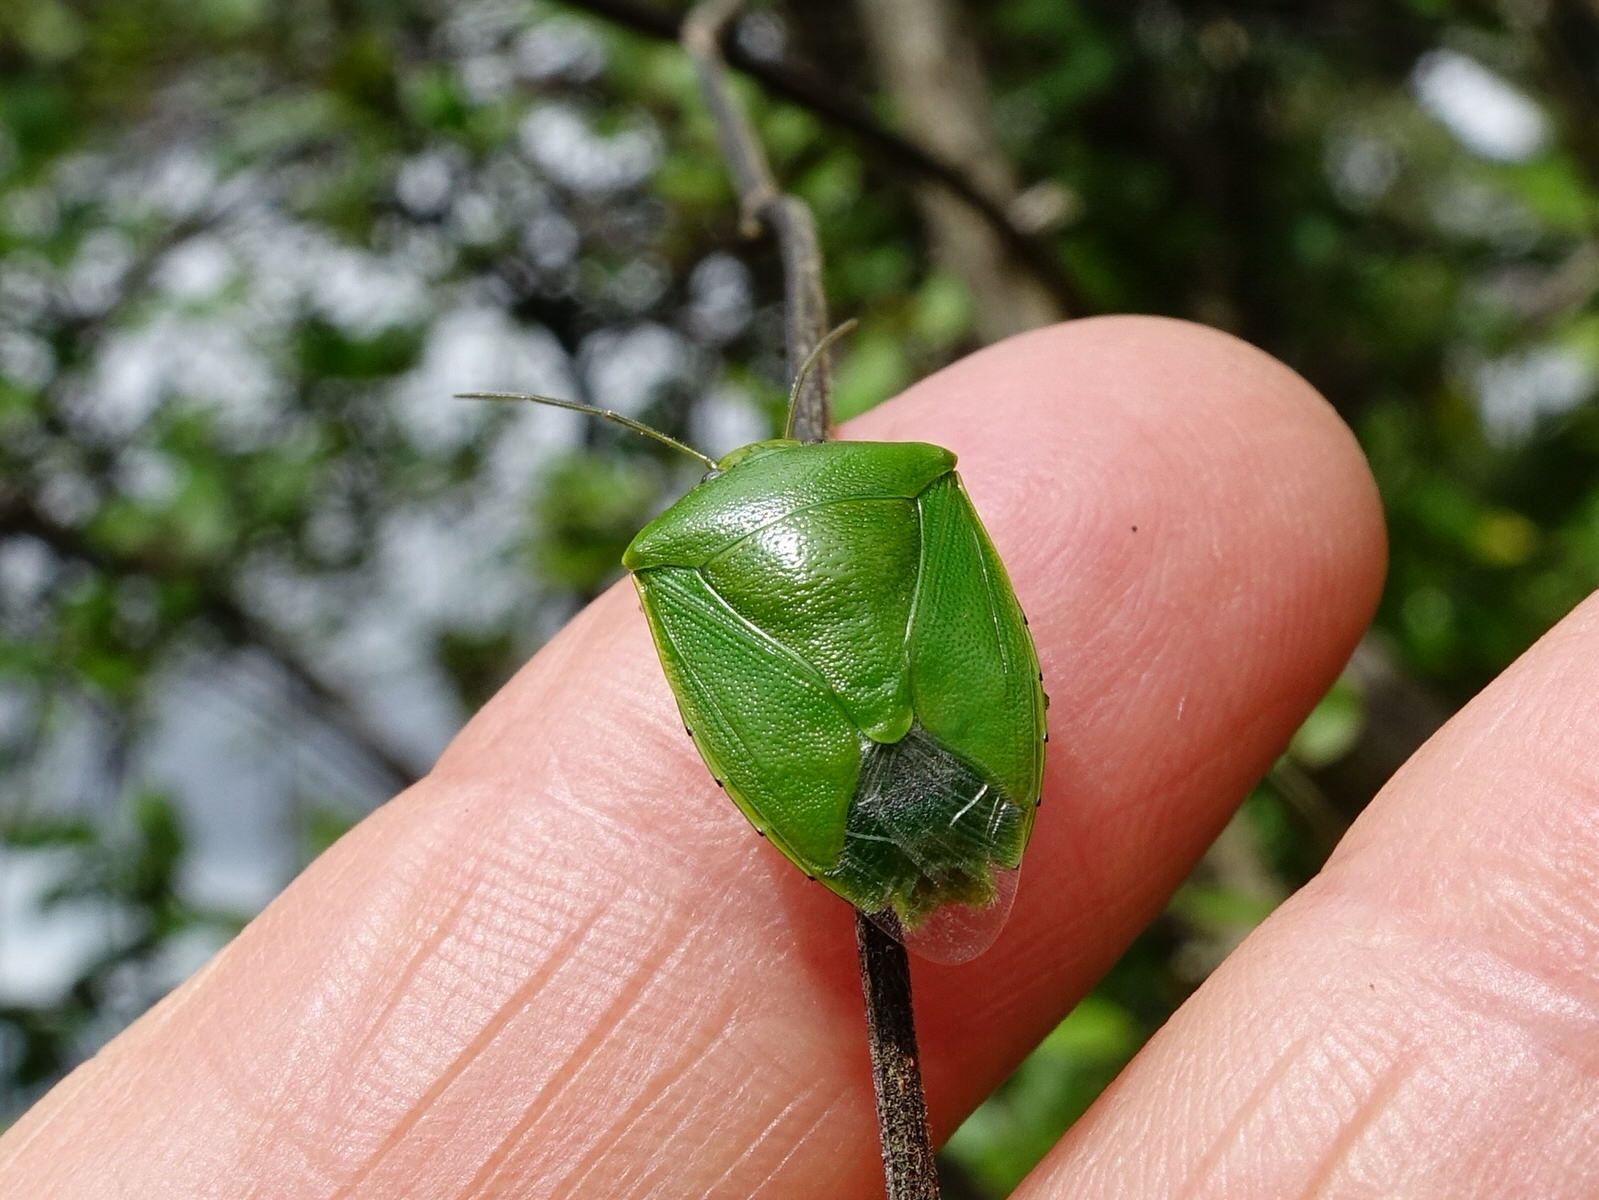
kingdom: Animalia
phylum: Arthropoda
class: Insecta
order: Hemiptera
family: Pentatomidae
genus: Glaucias
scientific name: Glaucias amyota
